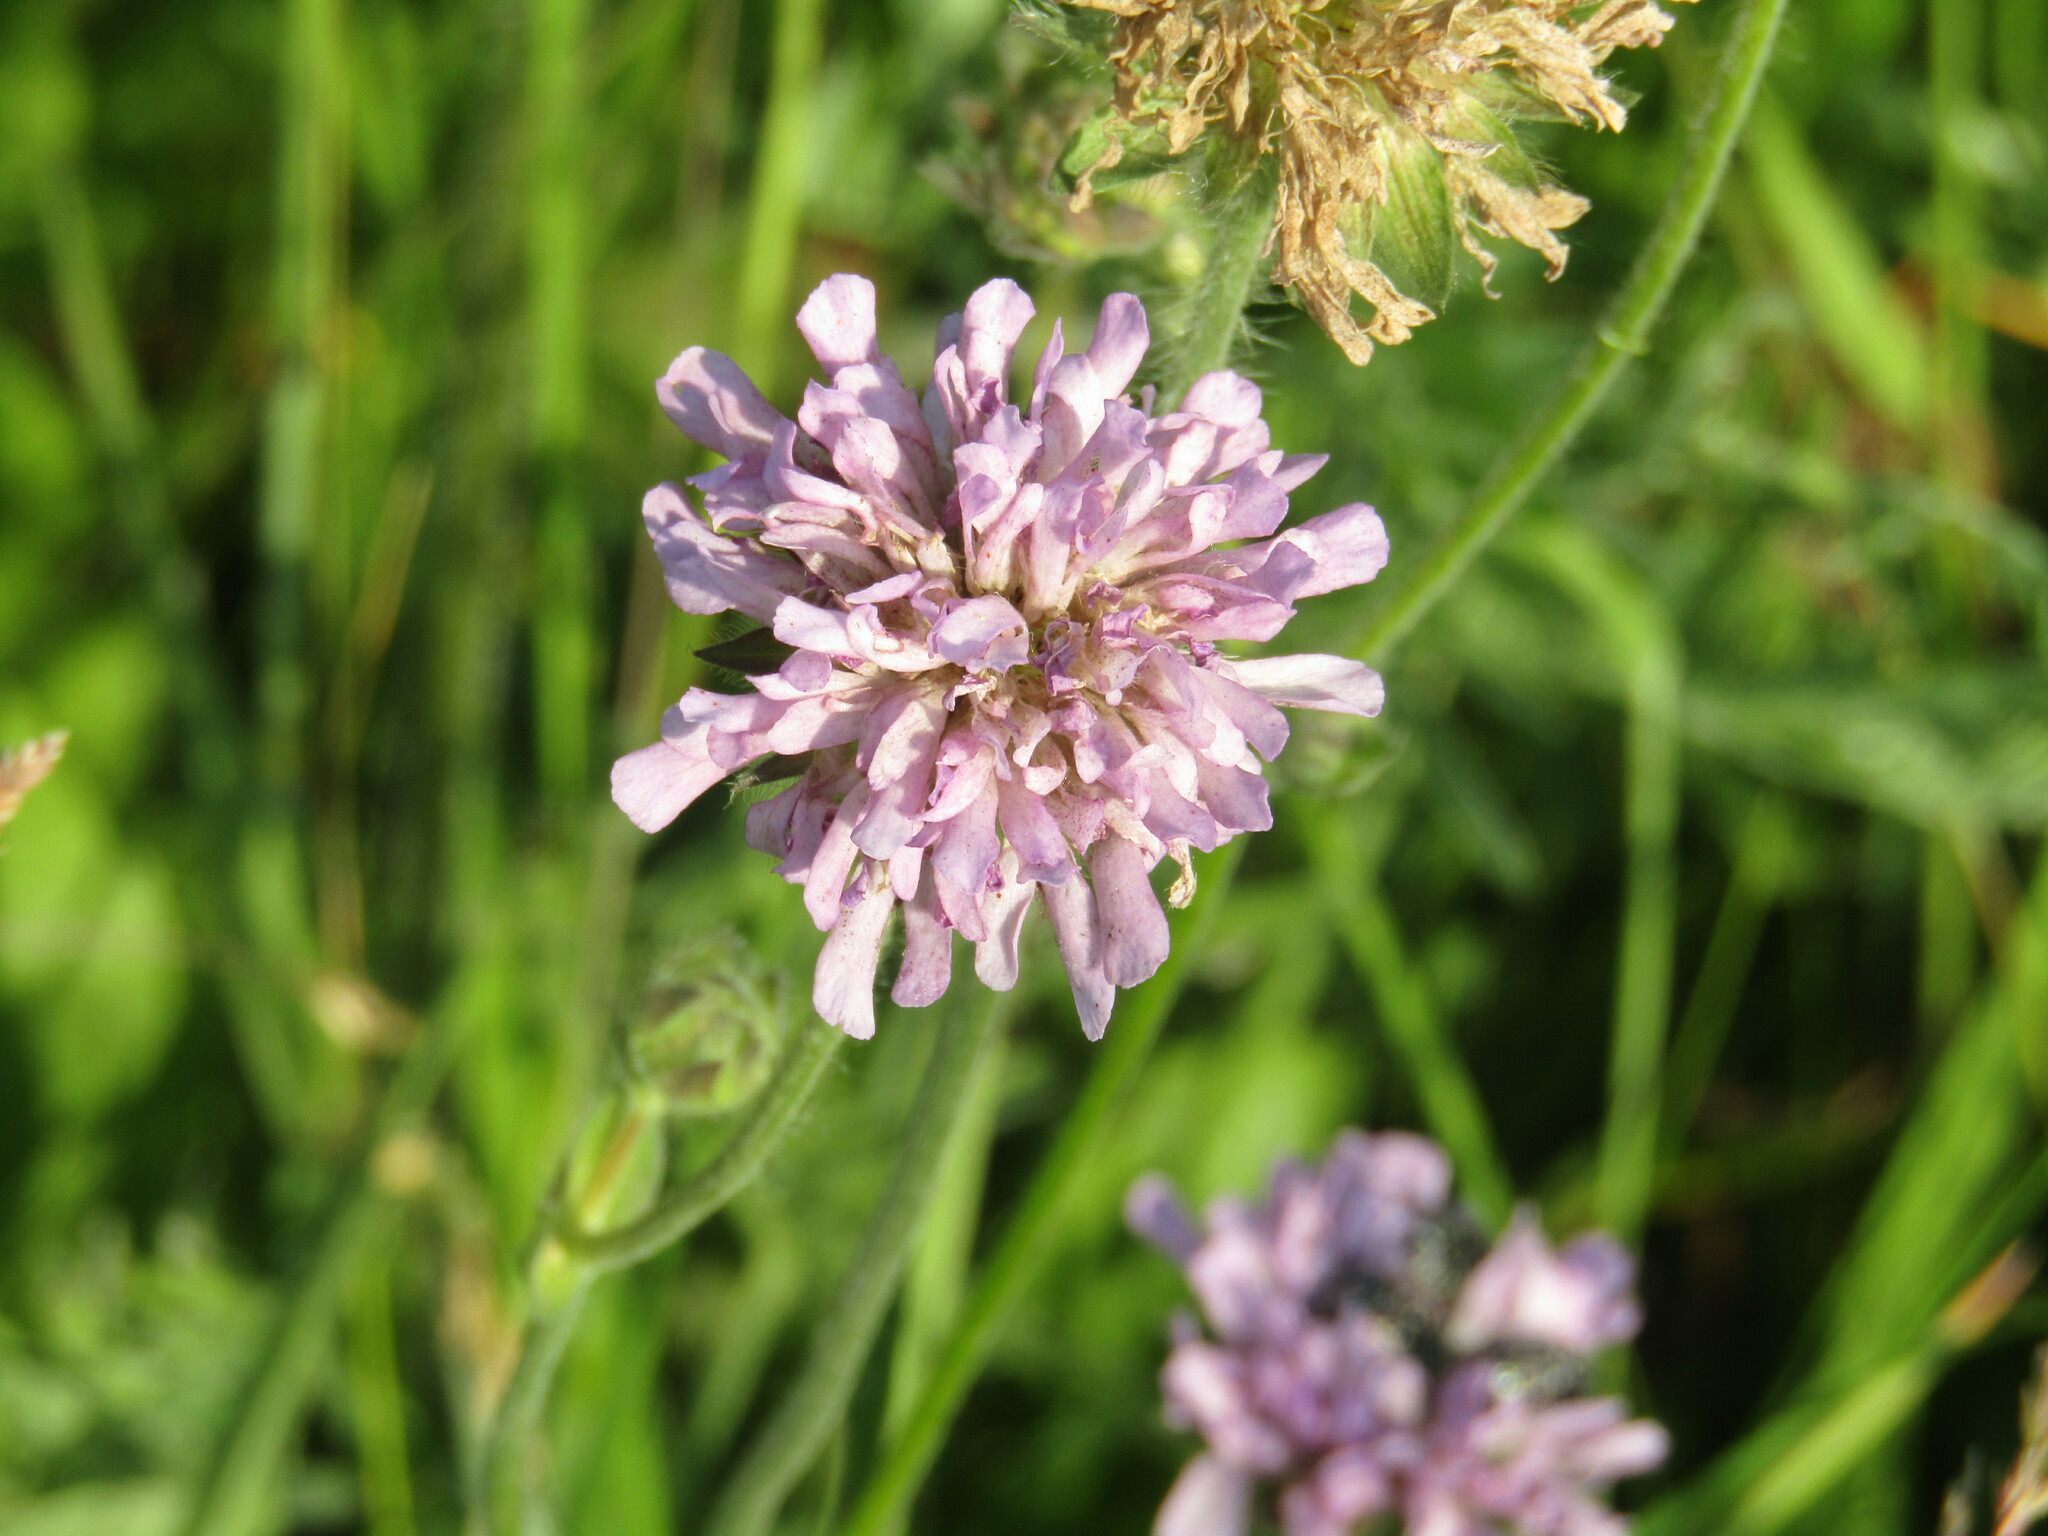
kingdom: Plantae
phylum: Tracheophyta
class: Magnoliopsida
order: Dipsacales
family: Caprifoliaceae
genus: Knautia
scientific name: Knautia arvensis
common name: Field scabiosa
